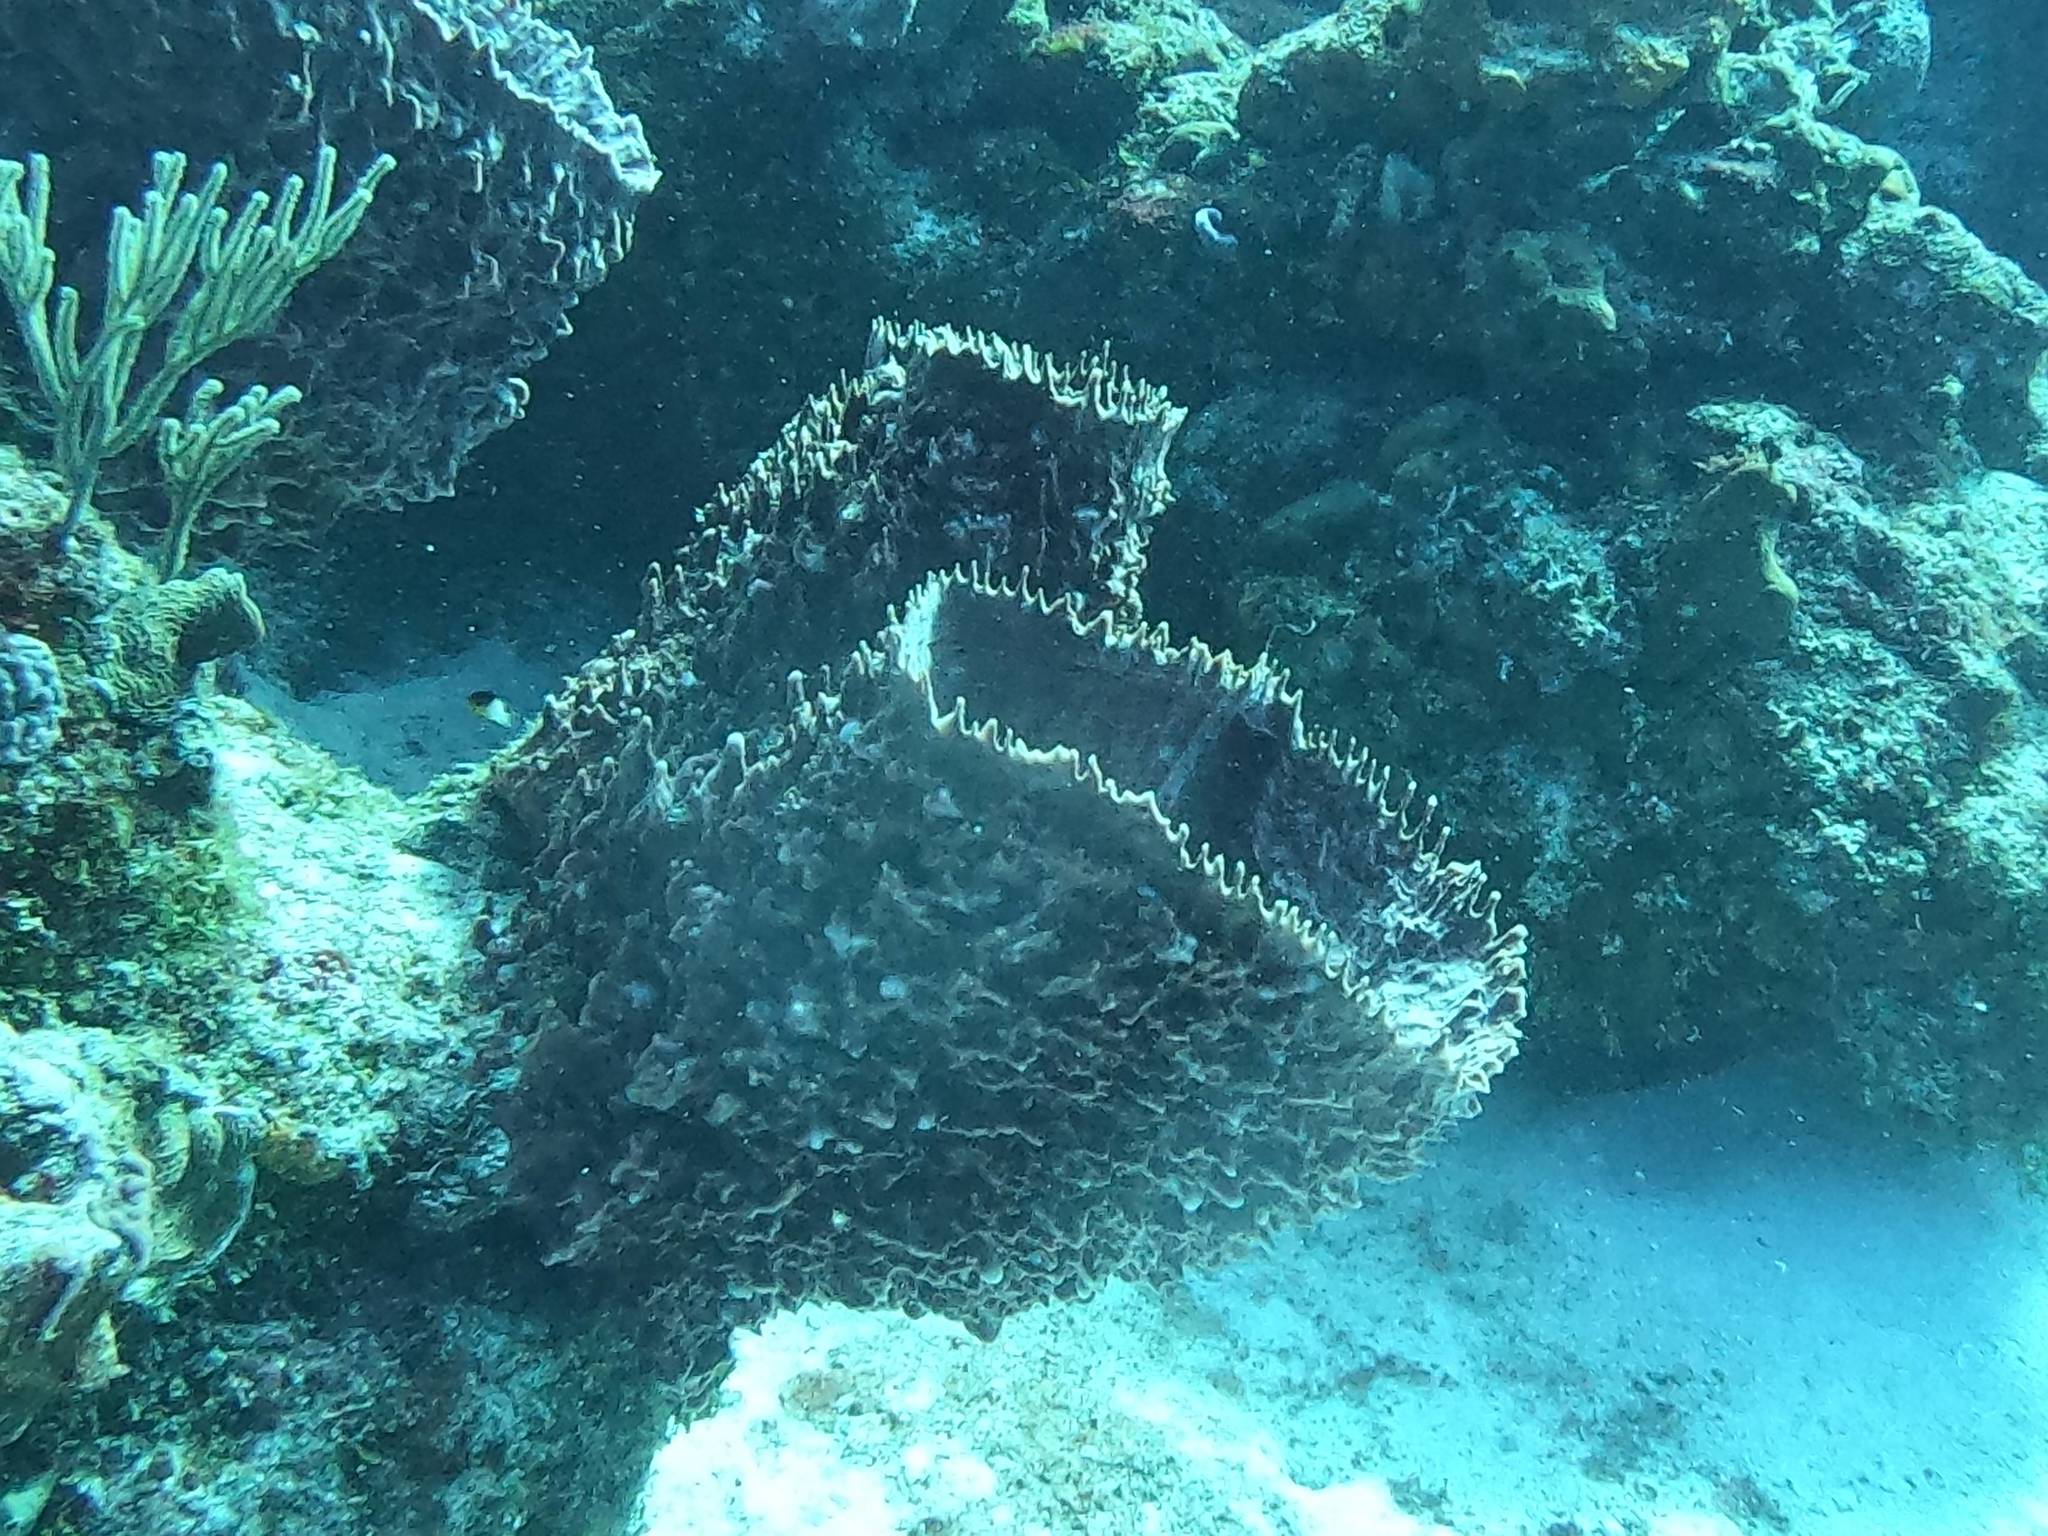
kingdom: Animalia
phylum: Porifera
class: Demospongiae
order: Haplosclerida
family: Petrosiidae
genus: Xestospongia
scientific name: Xestospongia muta
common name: Giant barrel sponge
